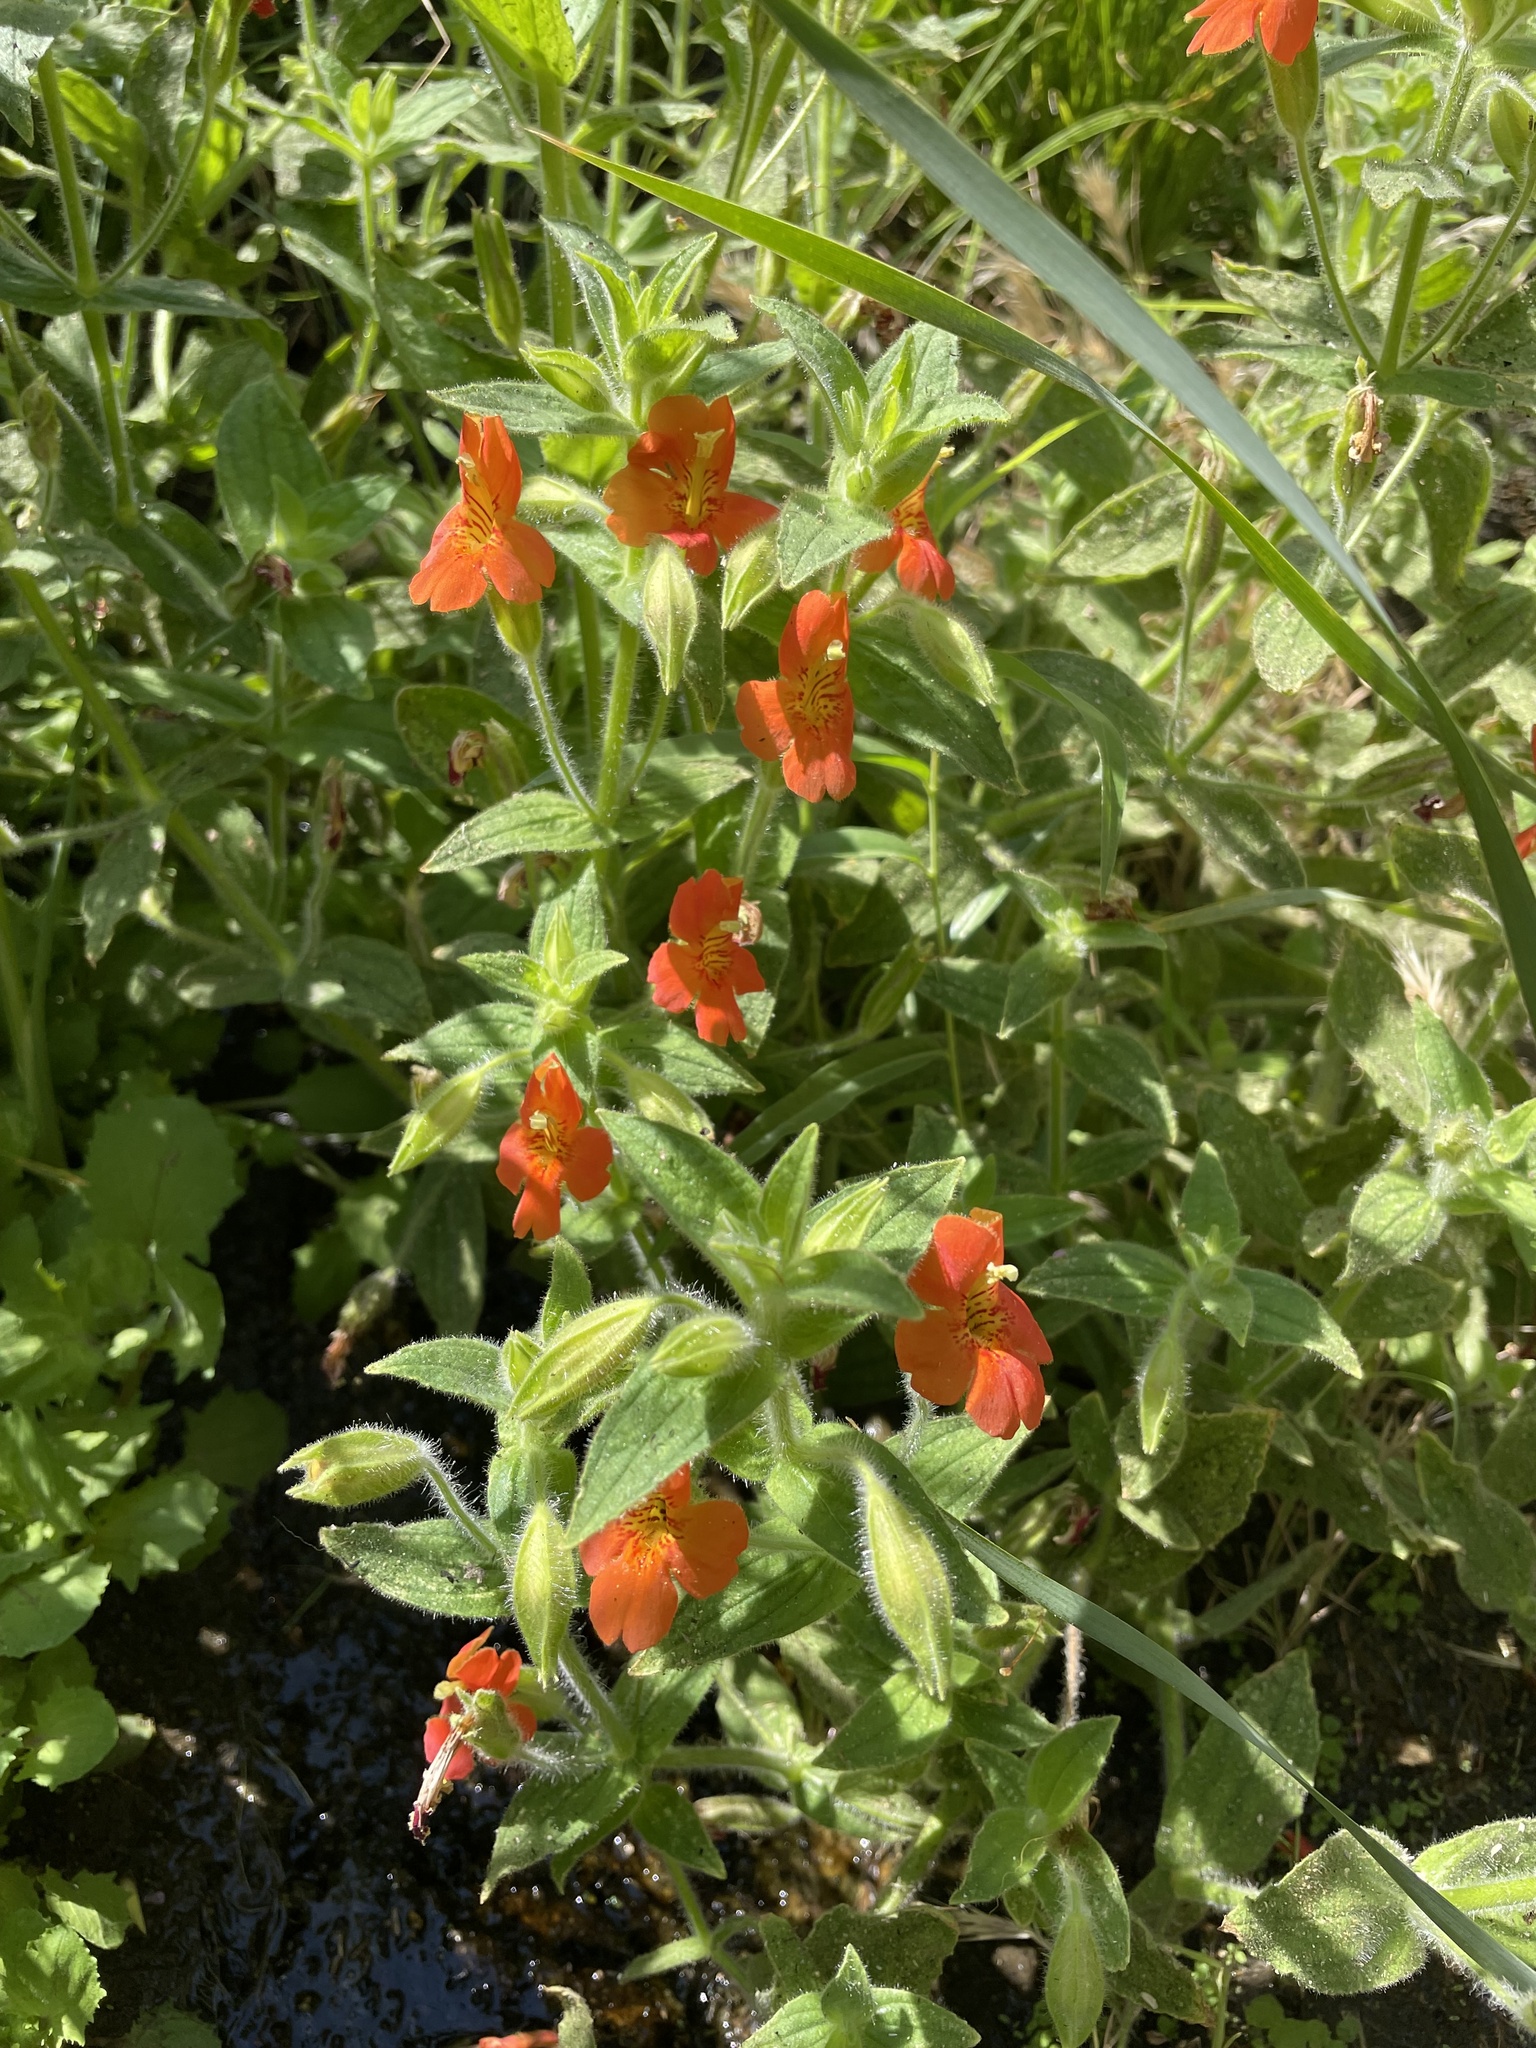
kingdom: Plantae
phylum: Tracheophyta
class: Magnoliopsida
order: Lamiales
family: Phrymaceae
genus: Erythranthe
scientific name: Erythranthe cardinalis
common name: Scarlet monkey-flower
